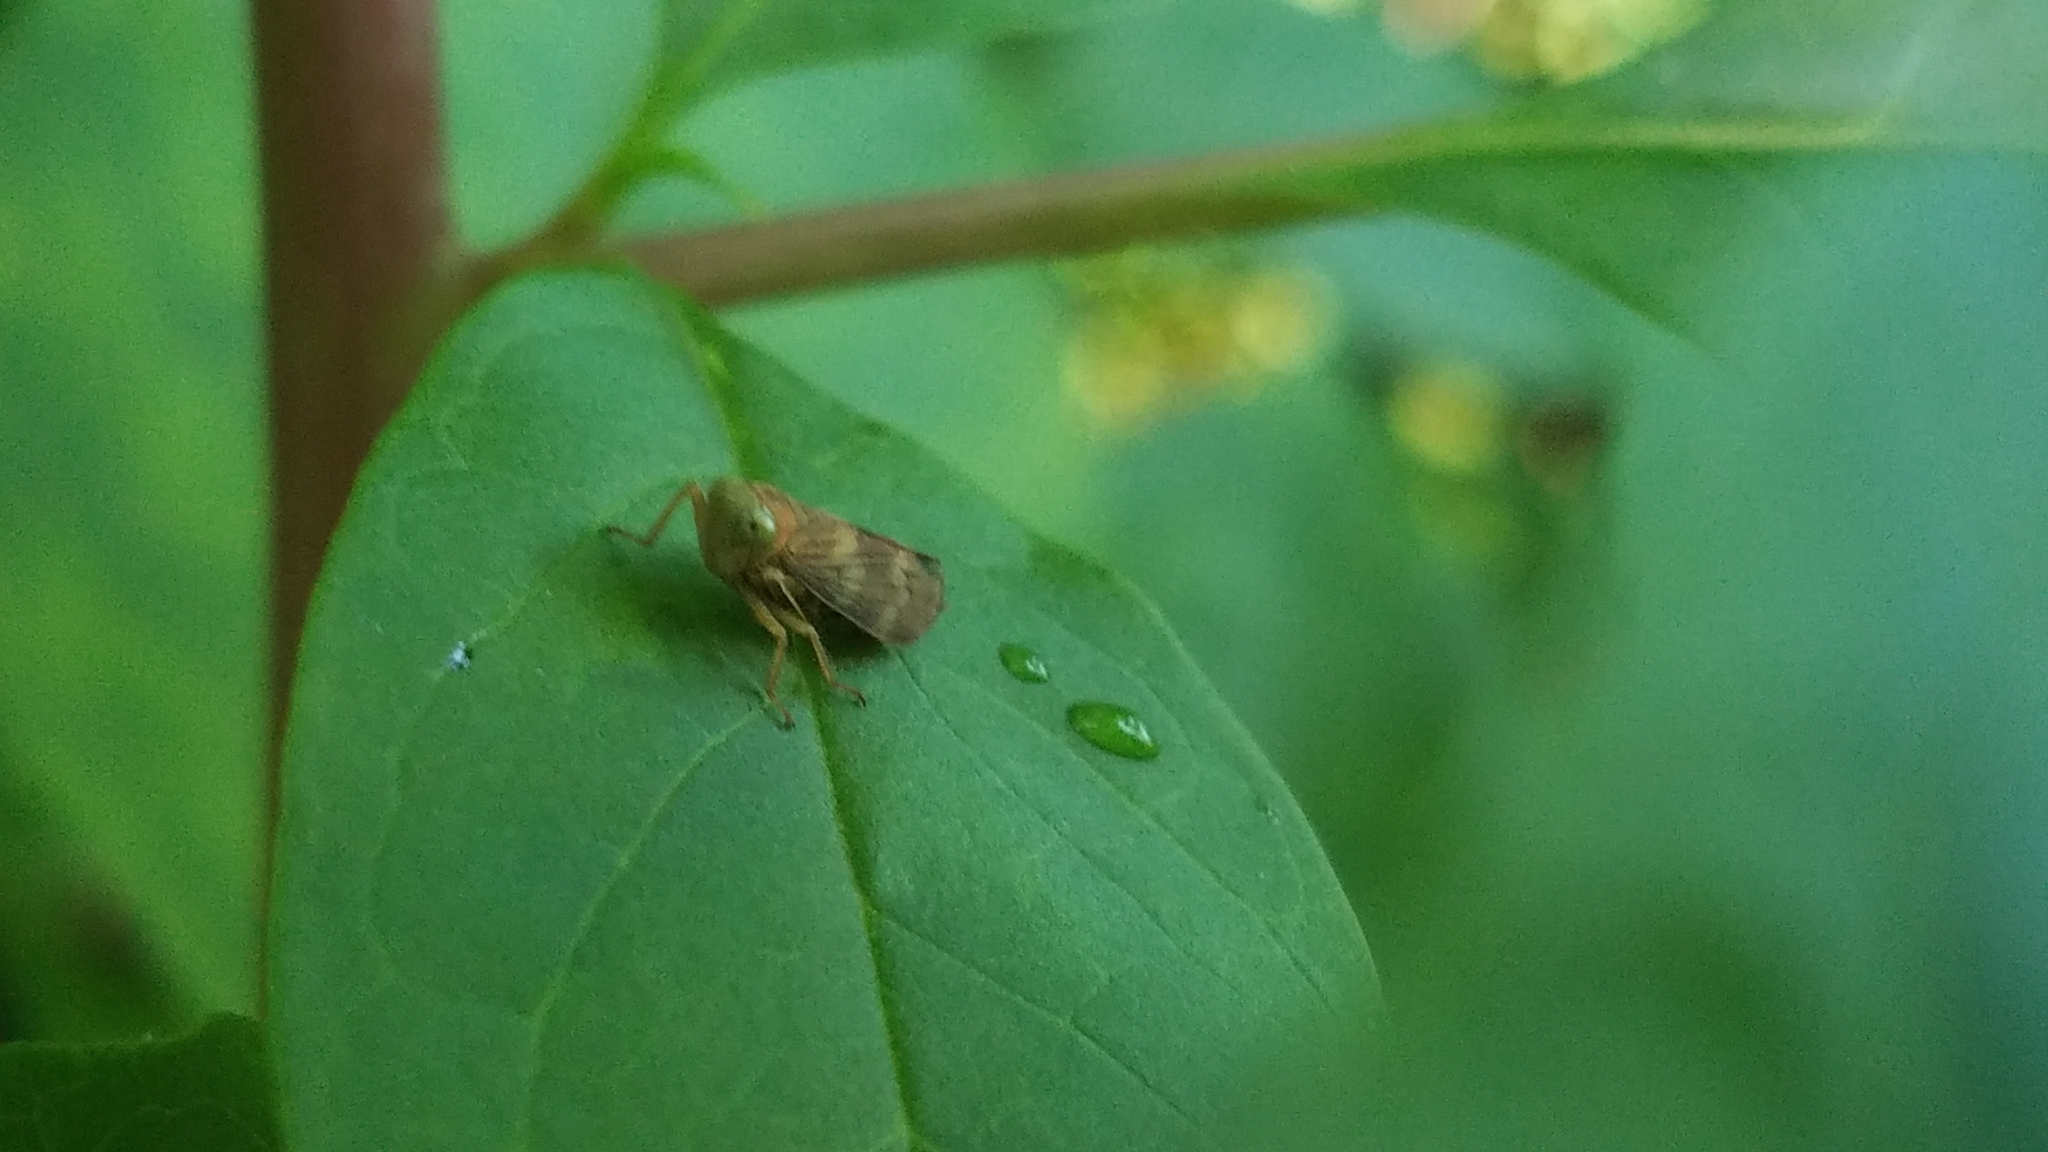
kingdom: Animalia
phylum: Arthropoda
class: Insecta
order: Hemiptera
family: Cicadellidae
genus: Jikradia
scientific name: Jikradia olitoria
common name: Coppery leafhopper
